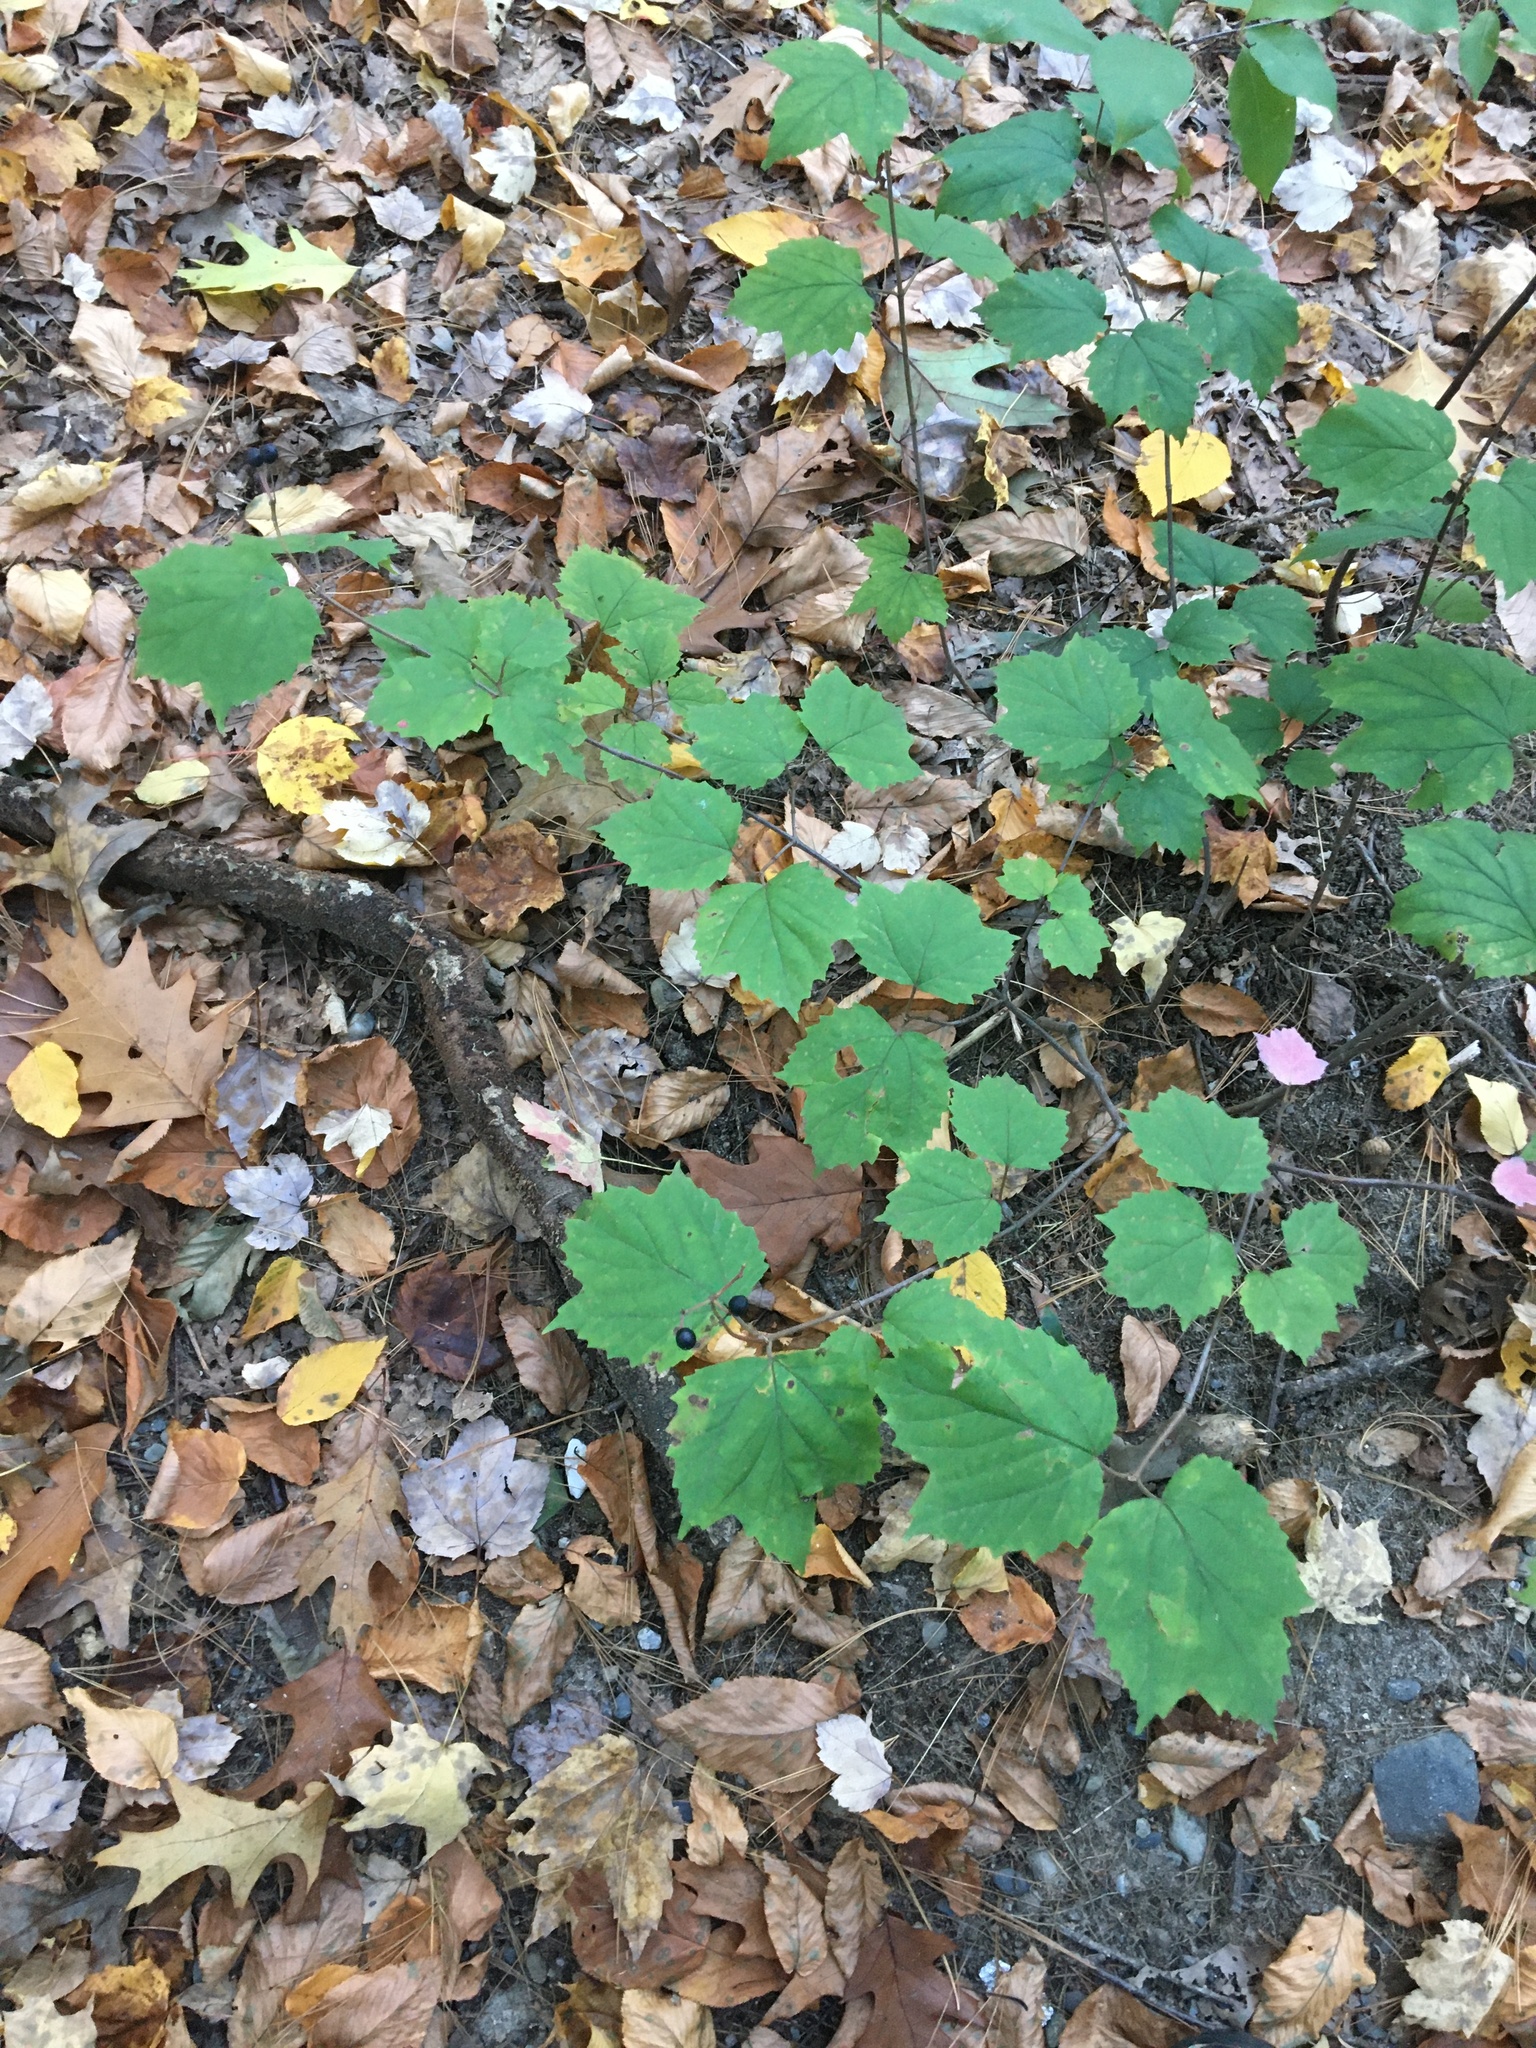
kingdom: Plantae
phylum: Tracheophyta
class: Magnoliopsida
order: Dipsacales
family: Viburnaceae
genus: Viburnum
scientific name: Viburnum acerifolium
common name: Dockmackie
